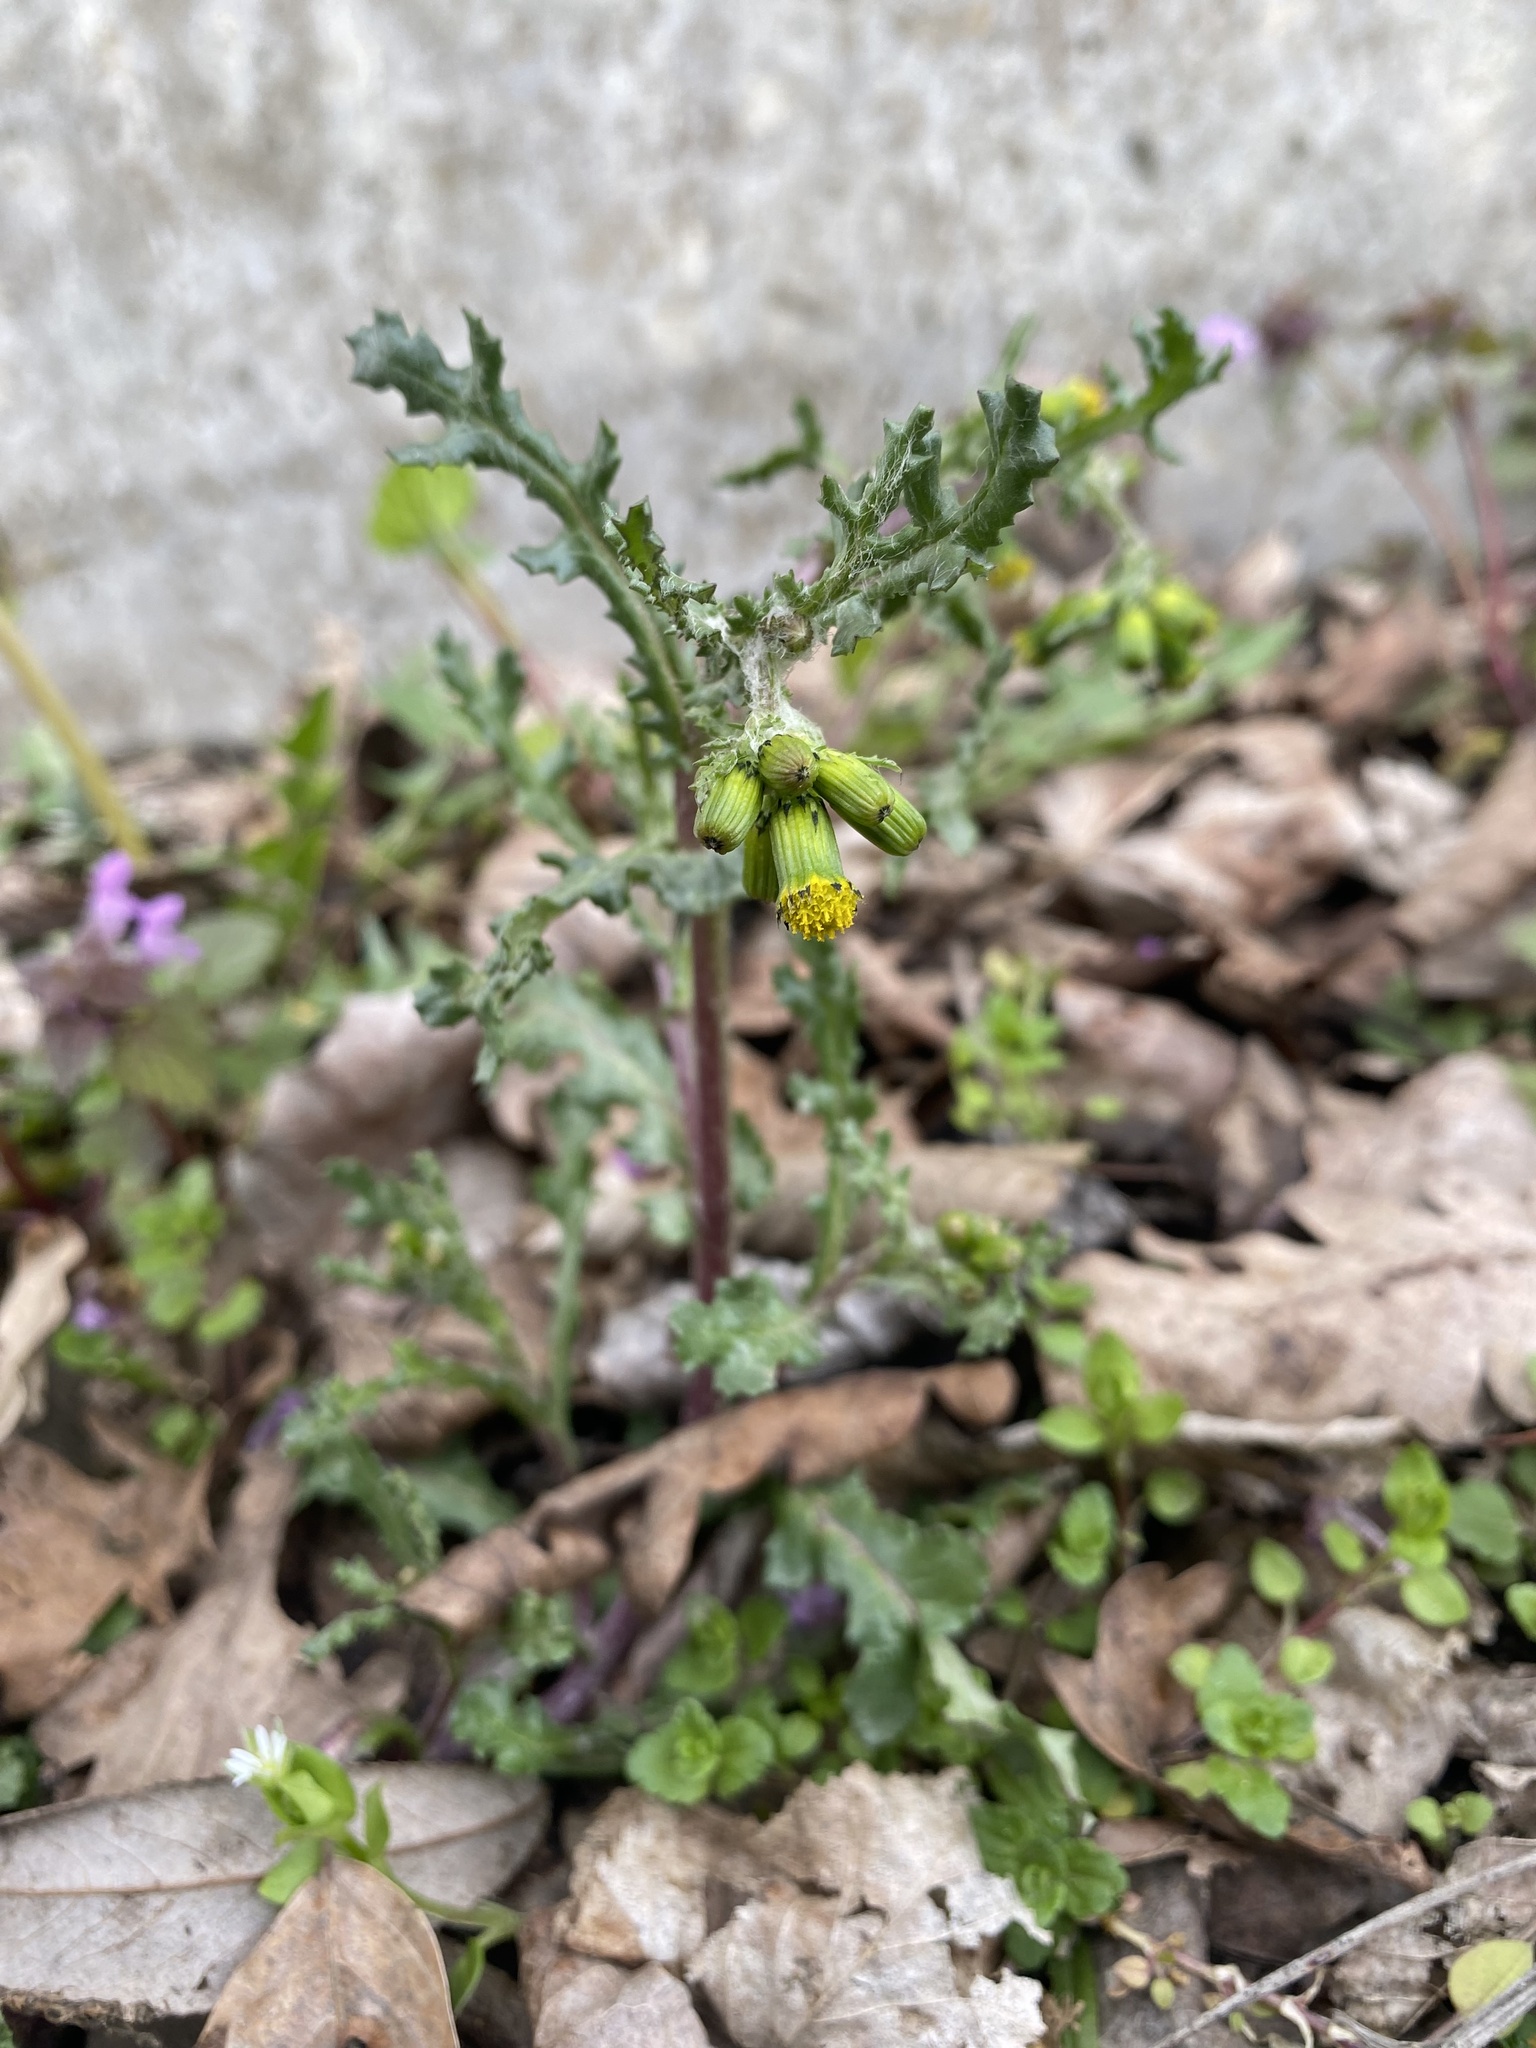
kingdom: Plantae
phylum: Tracheophyta
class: Magnoliopsida
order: Asterales
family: Asteraceae
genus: Senecio
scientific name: Senecio vulgaris
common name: Old-man-in-the-spring
